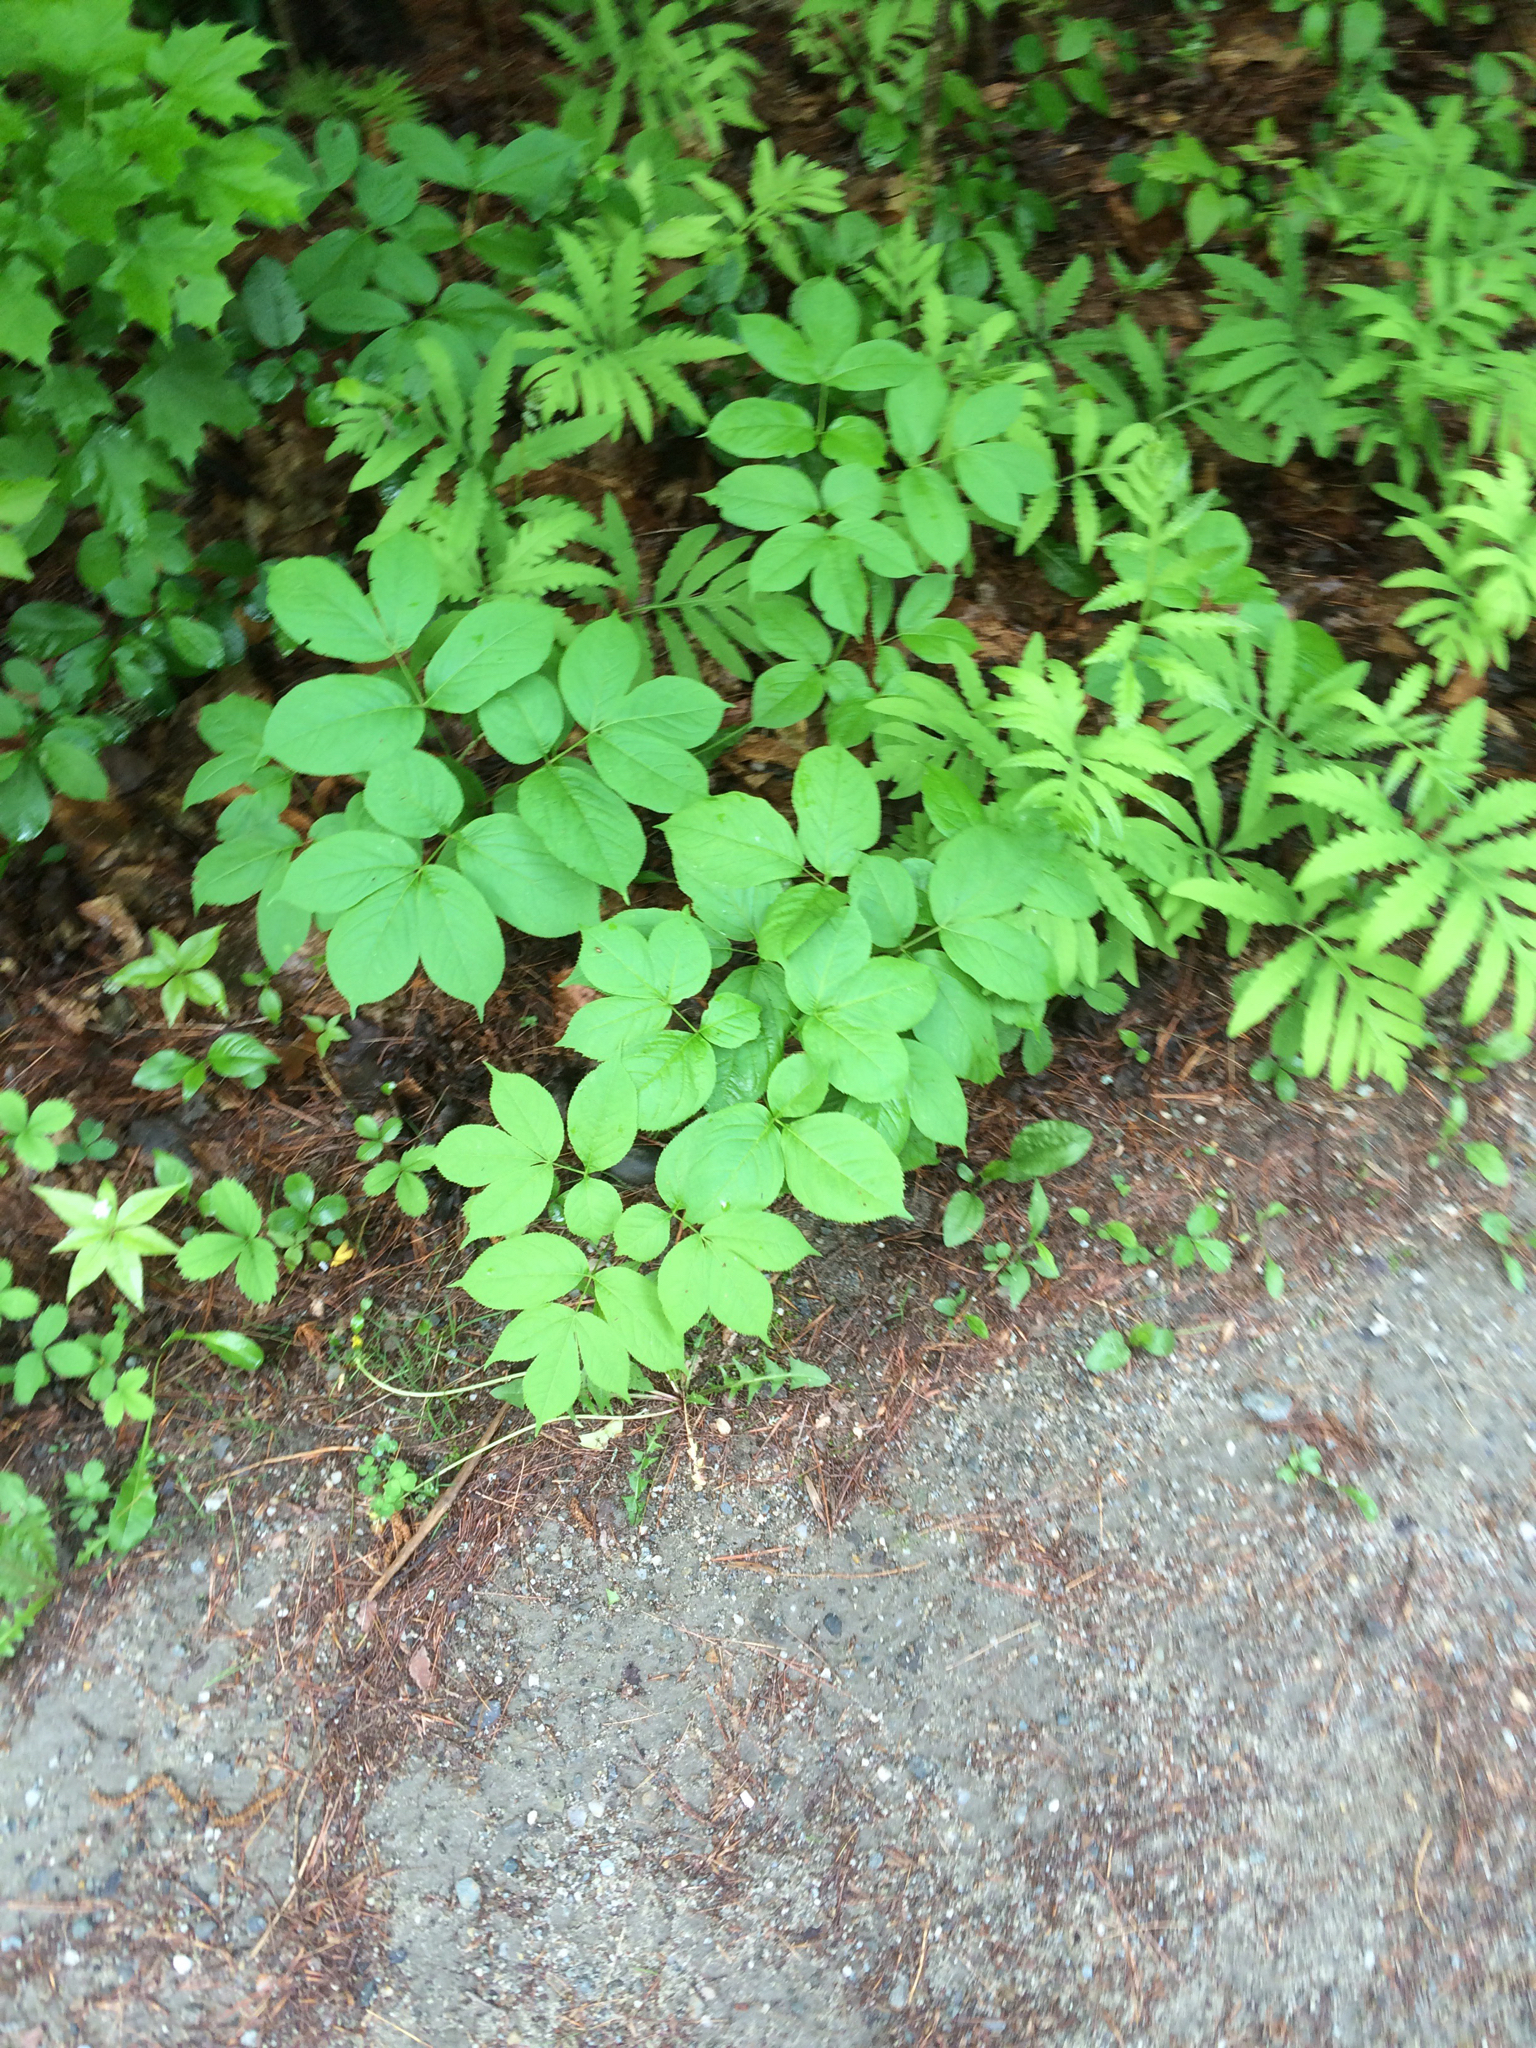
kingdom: Plantae
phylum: Tracheophyta
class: Magnoliopsida
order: Apiales
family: Araliaceae
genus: Aralia
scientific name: Aralia nudicaulis
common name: Wild sarsaparilla
